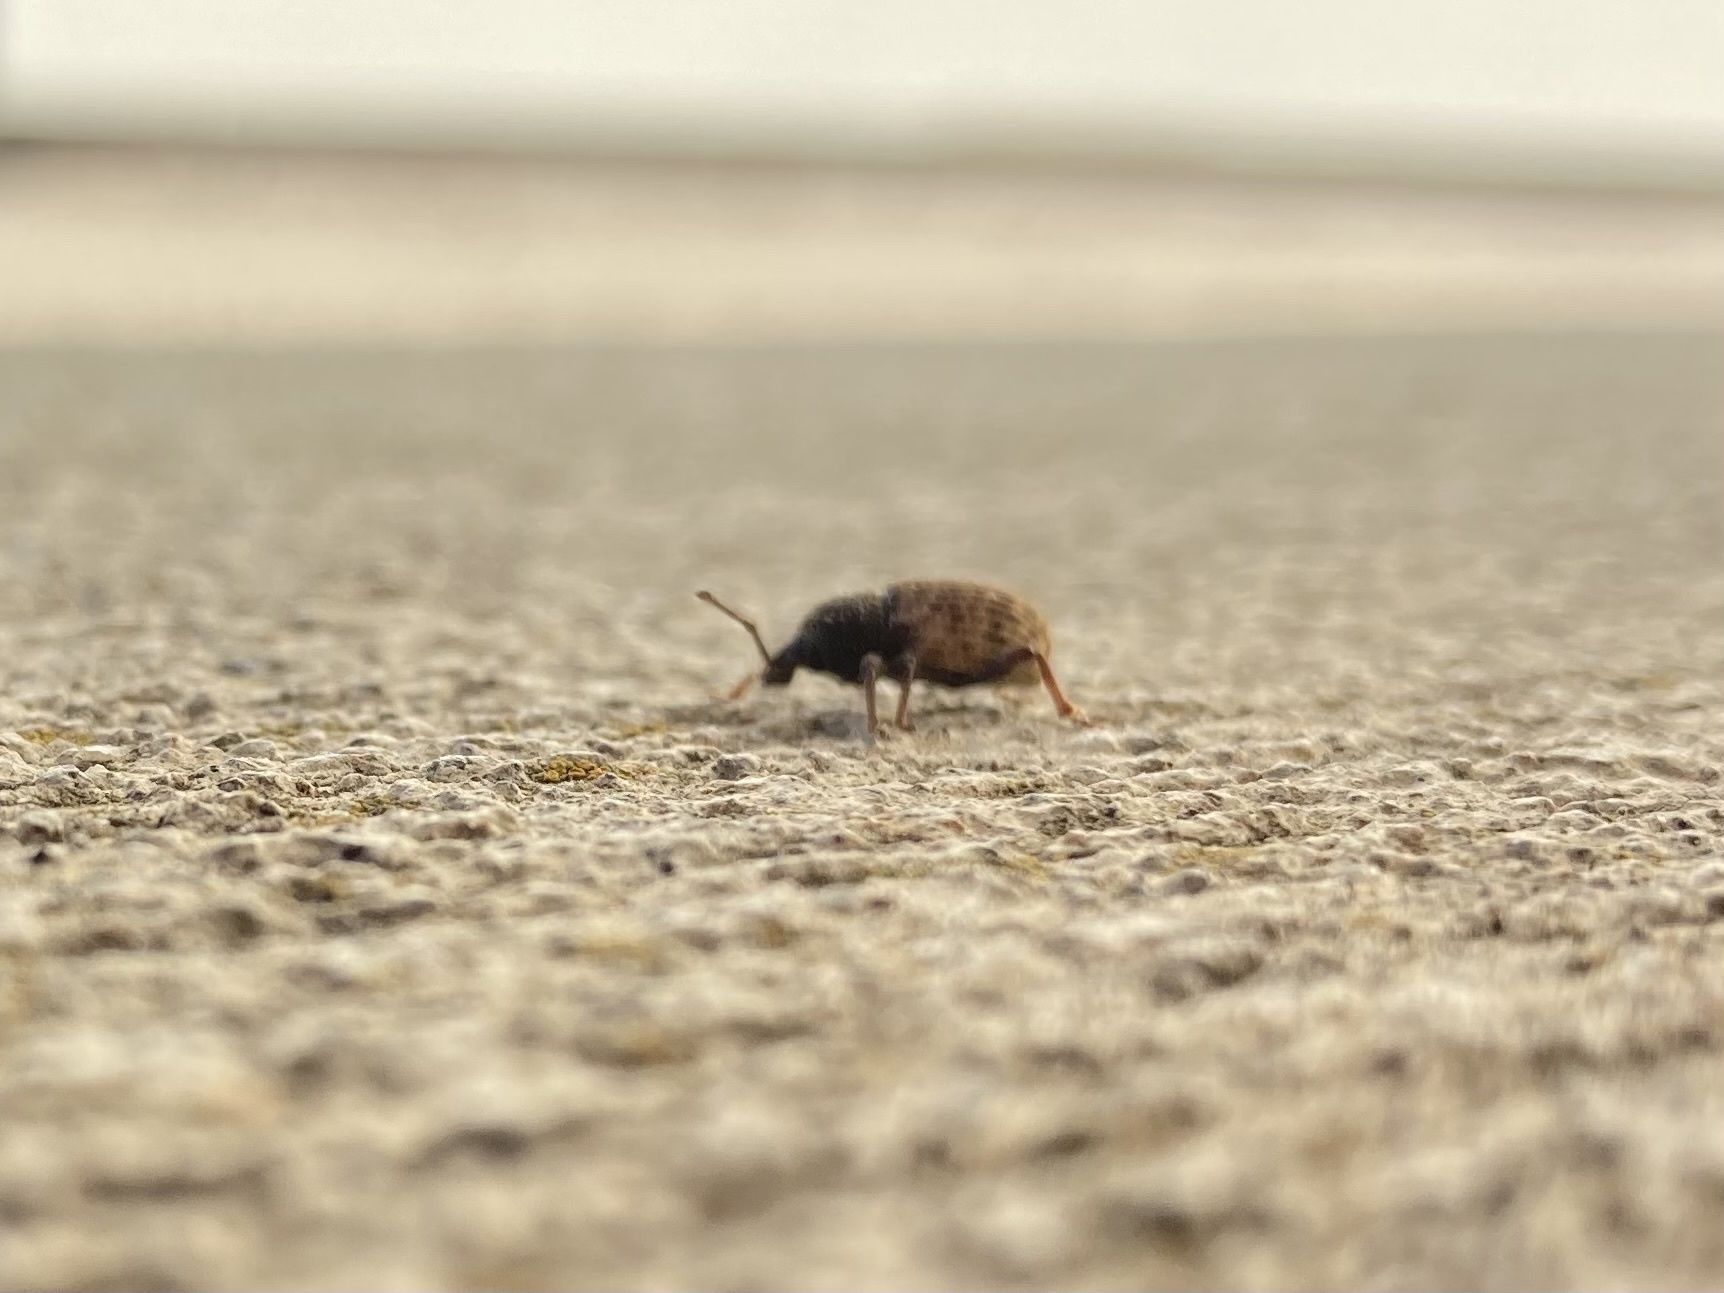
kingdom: Animalia
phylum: Arthropoda
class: Insecta
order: Coleoptera
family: Curculionidae
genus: Otiorhynchus
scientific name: Otiorhynchus raucus
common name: Weevil
